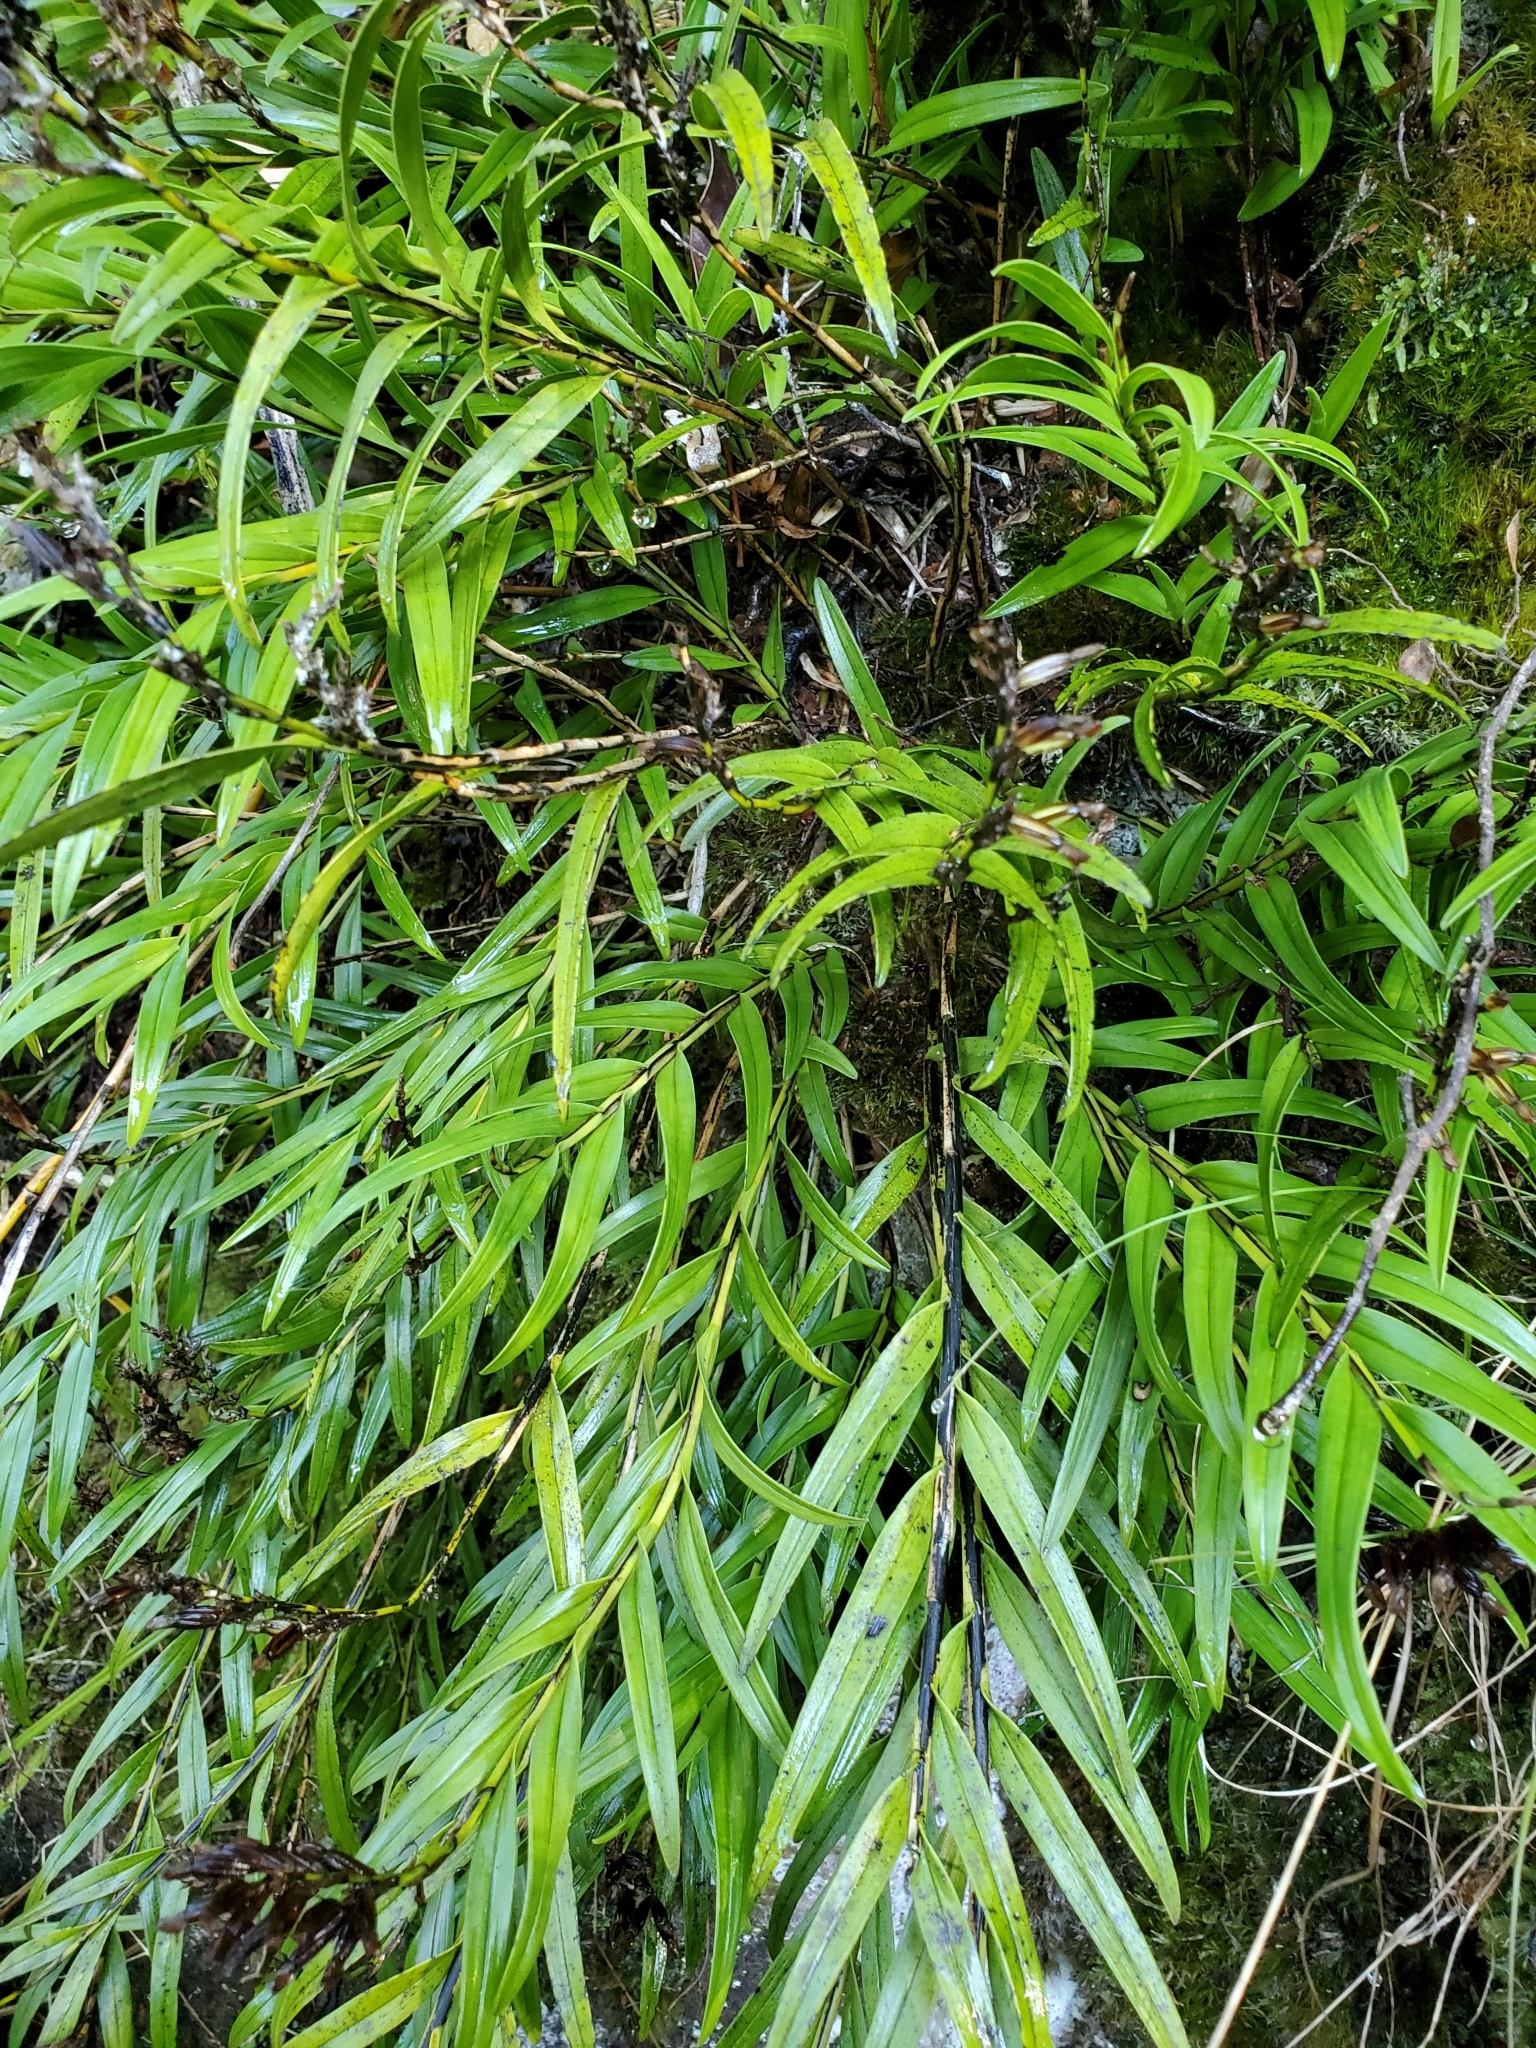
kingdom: Plantae
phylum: Tracheophyta
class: Liliopsida
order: Asparagales
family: Orchidaceae
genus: Earina
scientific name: Earina autumnalis
